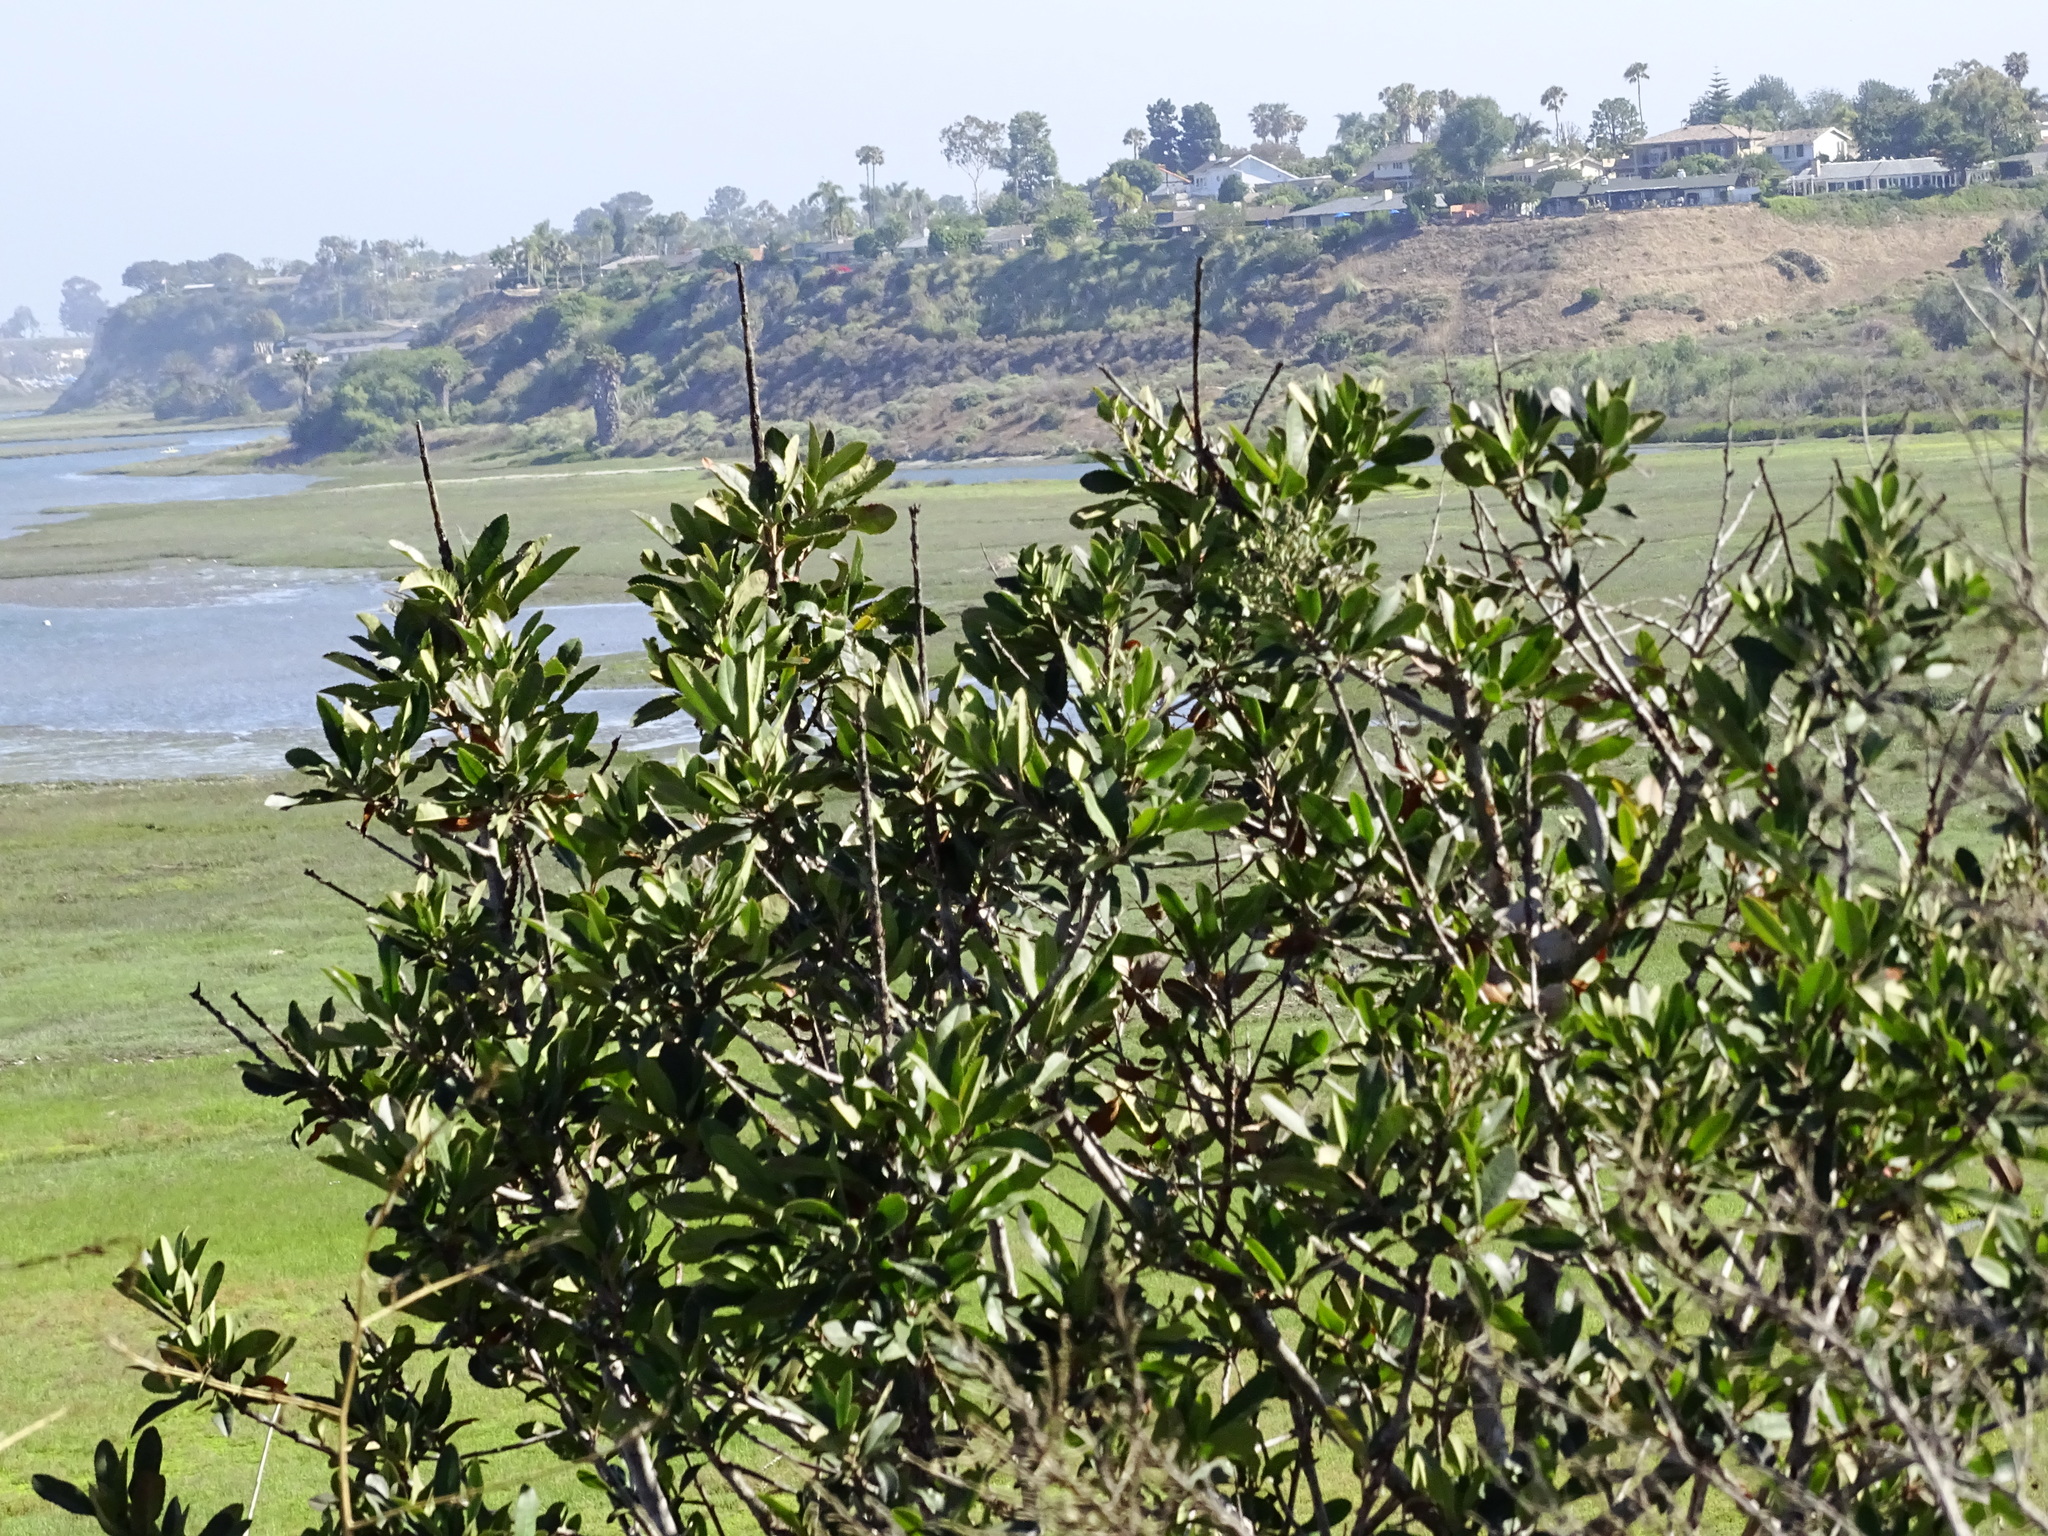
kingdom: Plantae
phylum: Tracheophyta
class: Magnoliopsida
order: Rosales
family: Rosaceae
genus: Heteromeles
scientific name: Heteromeles arbutifolia
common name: California-holly
